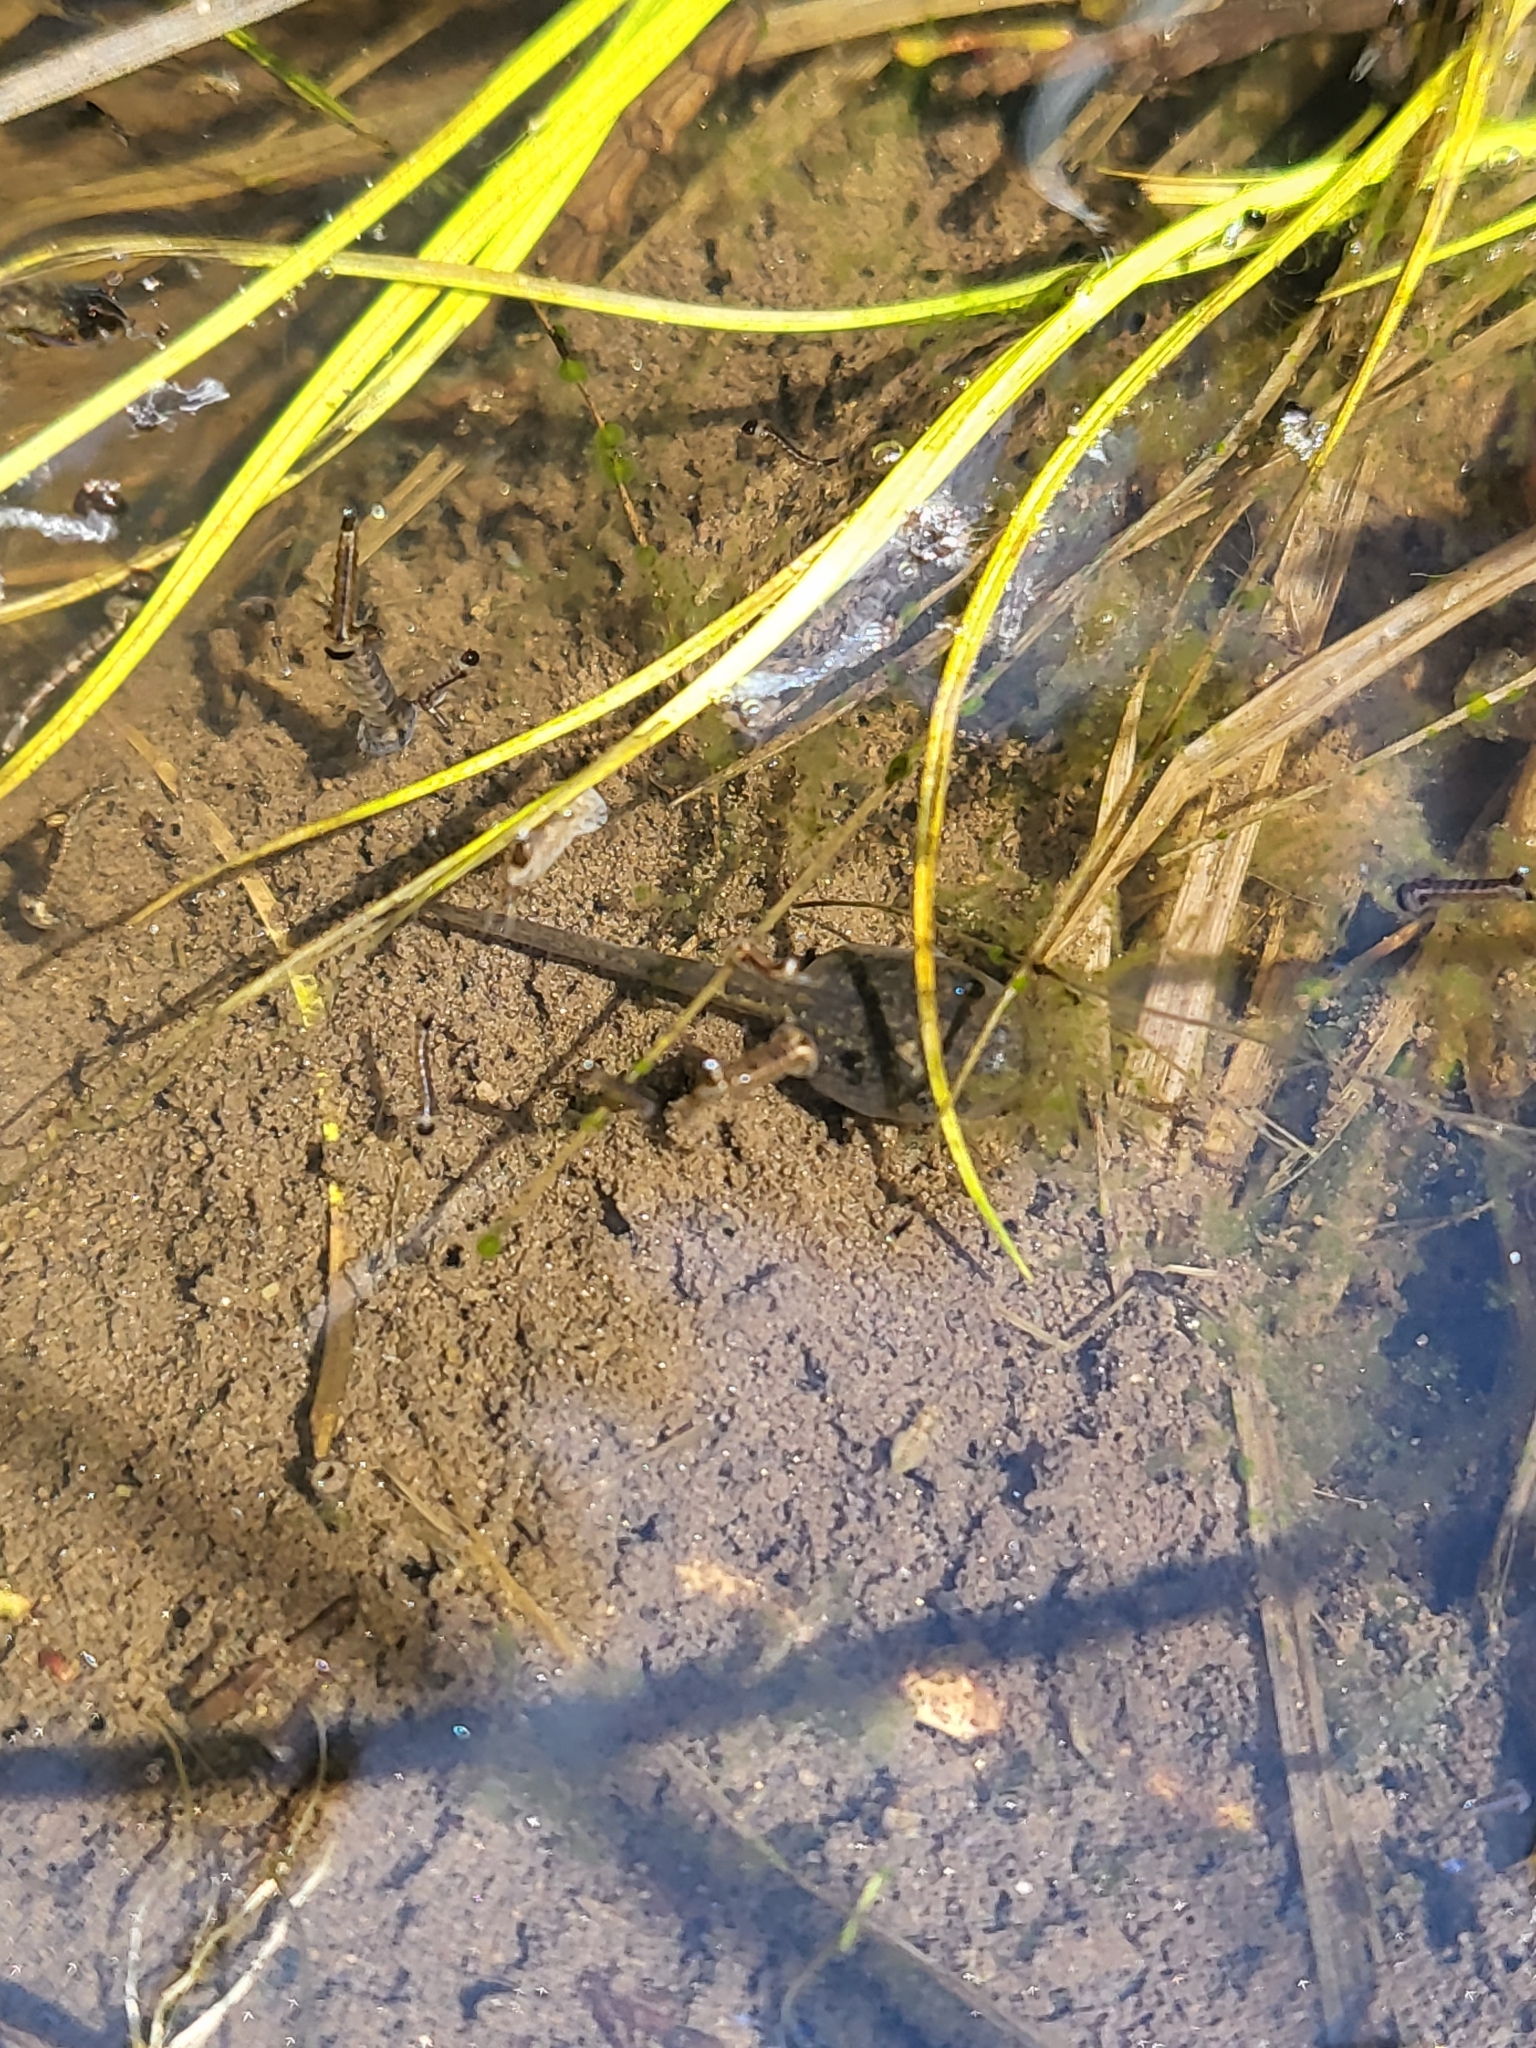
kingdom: Animalia
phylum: Chordata
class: Amphibia
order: Anura
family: Hylidae
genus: Pseudacris
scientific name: Pseudacris regilla
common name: Pacific chorus frog
